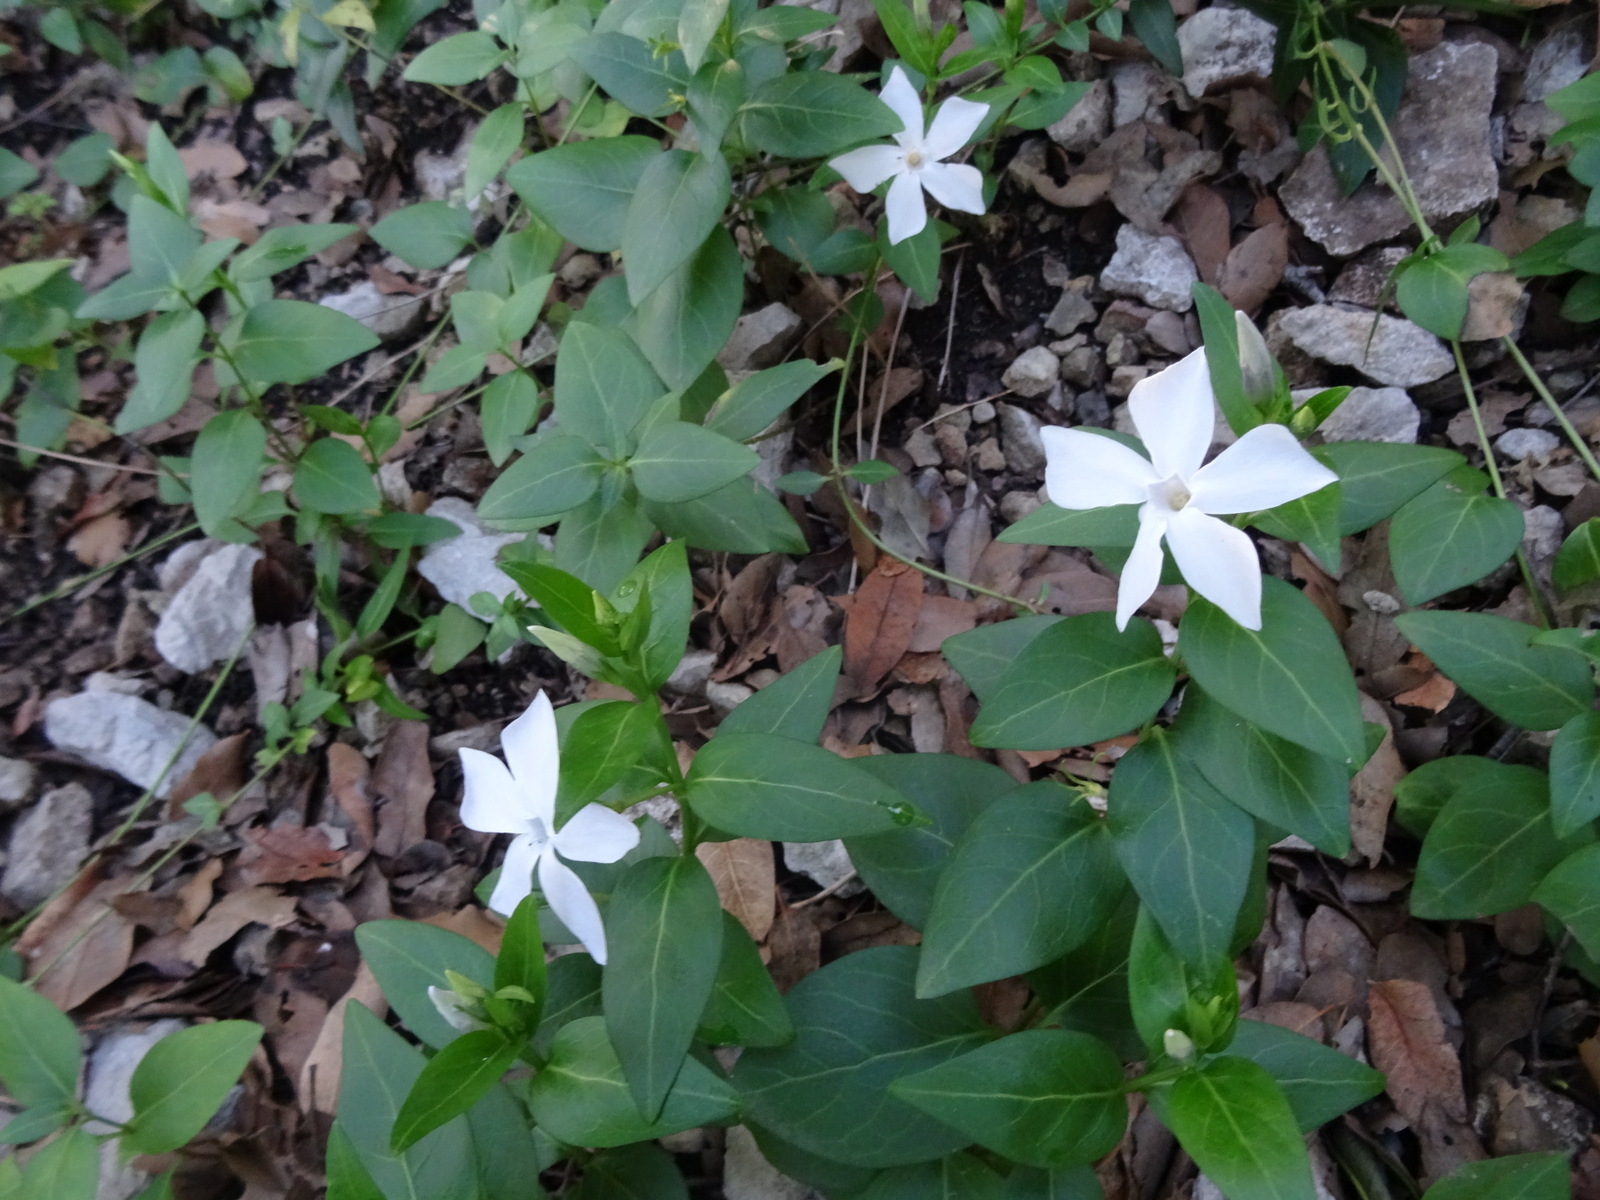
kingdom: Plantae
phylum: Tracheophyta
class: Magnoliopsida
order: Gentianales
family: Apocynaceae
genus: Vinca
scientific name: Vinca difformis
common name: Intermediate periwinkle
